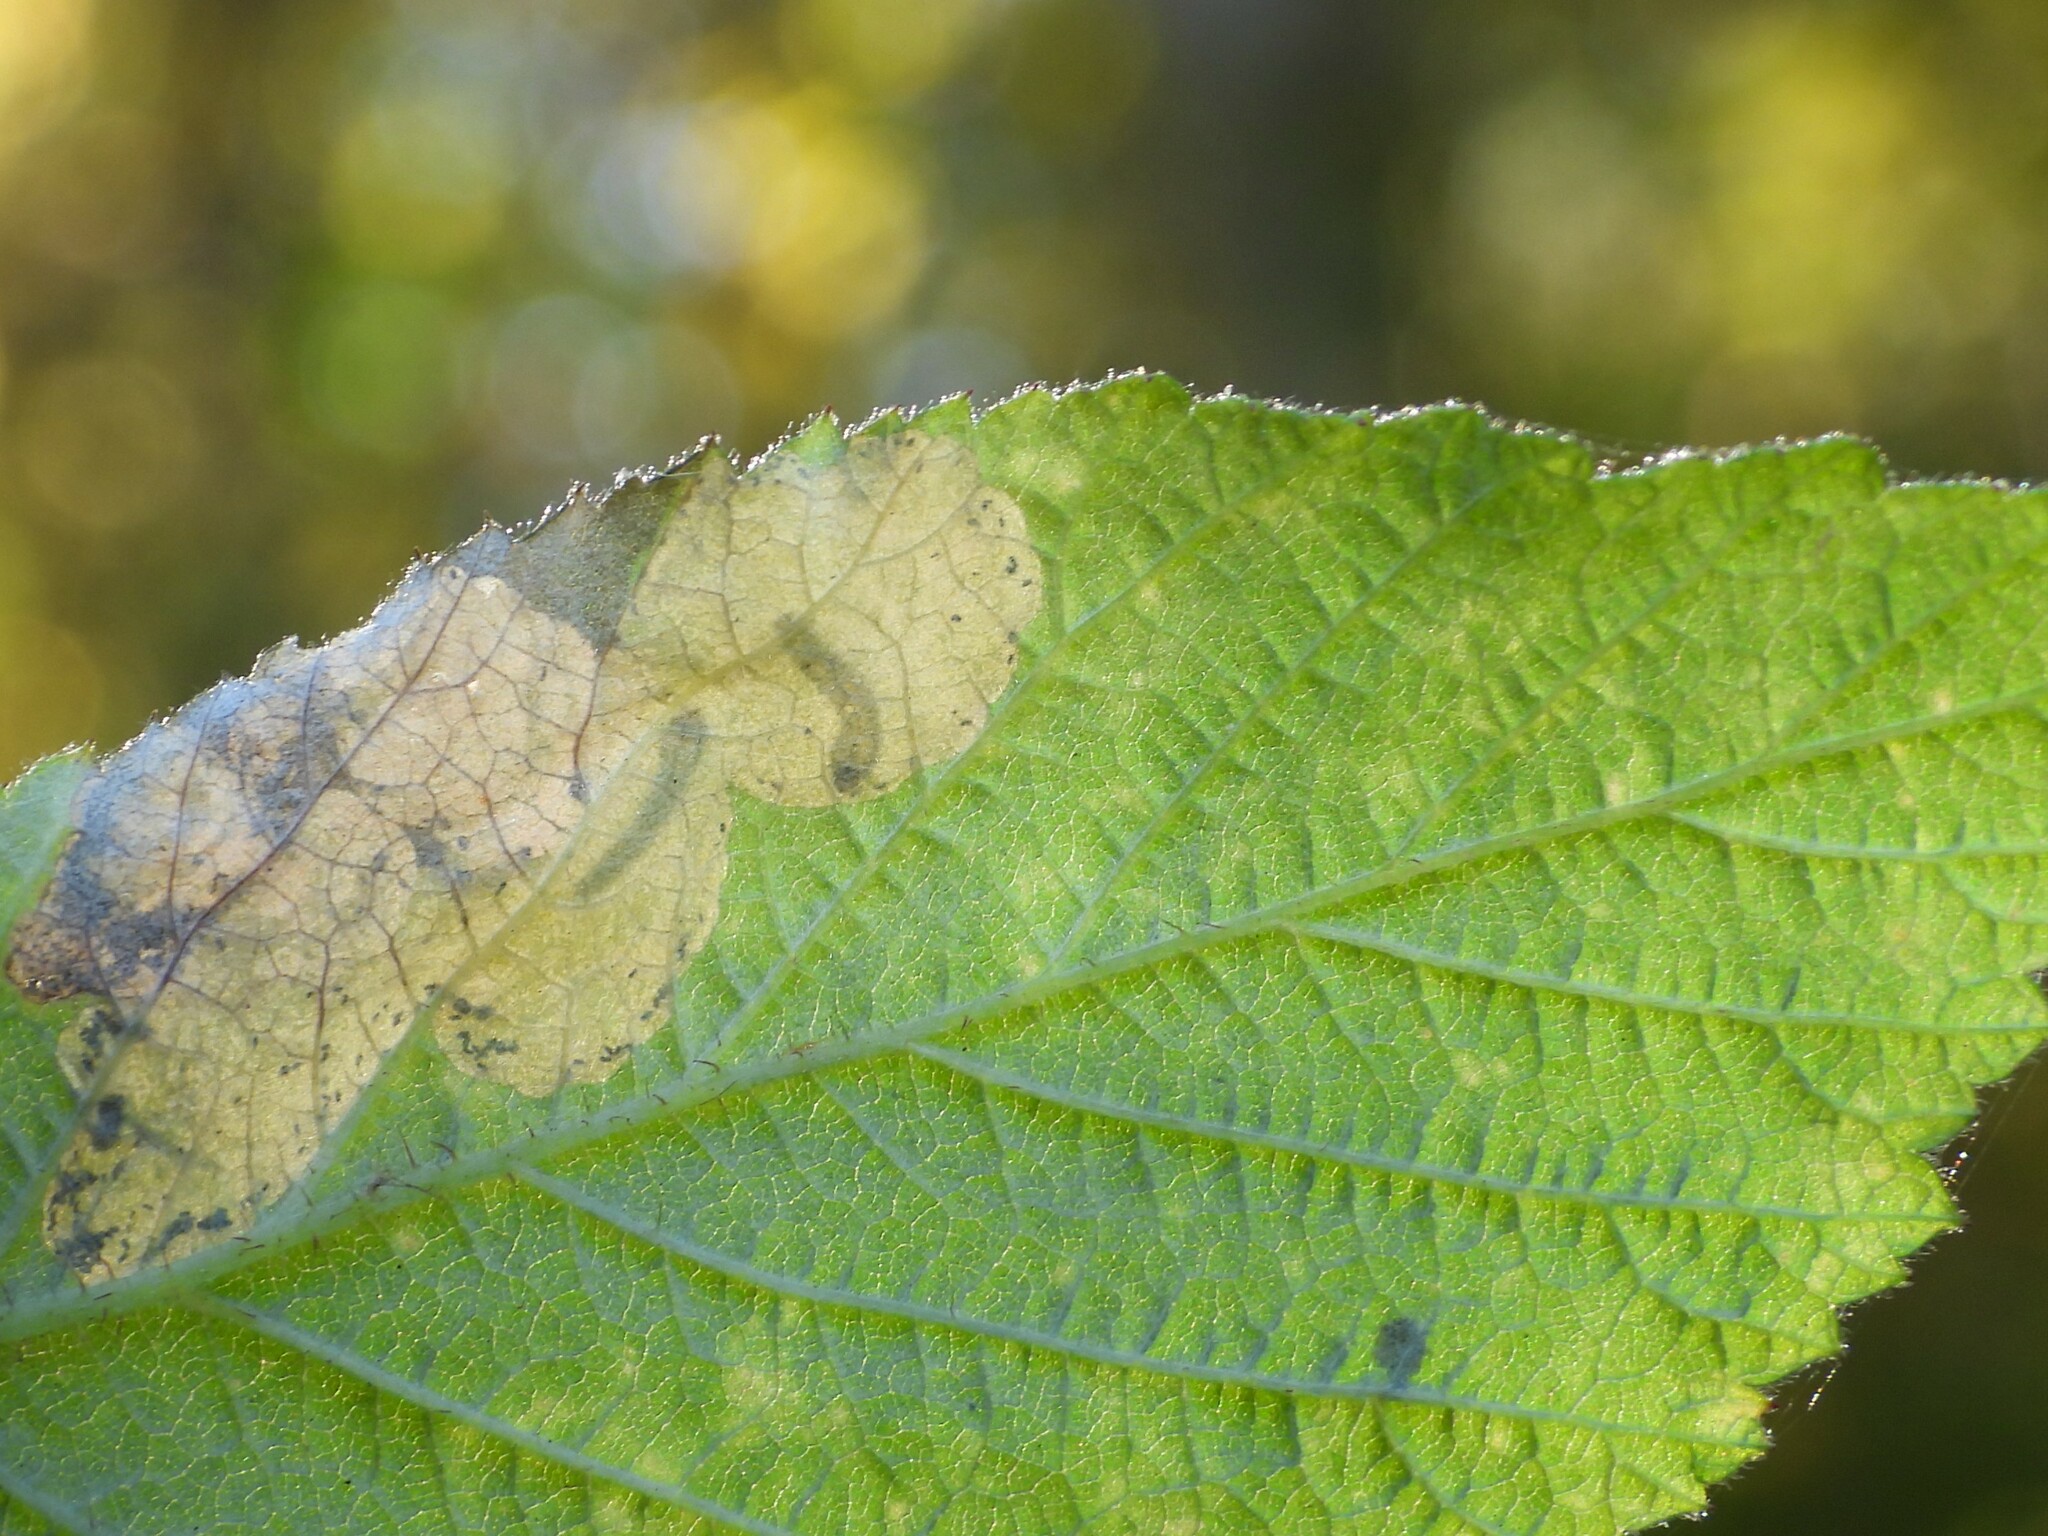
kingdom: Animalia
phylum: Arthropoda
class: Insecta
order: Hymenoptera
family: Tenthredinidae
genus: Profenusa
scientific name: Profenusa thomsoni
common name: Amber-marked birch leafminer
